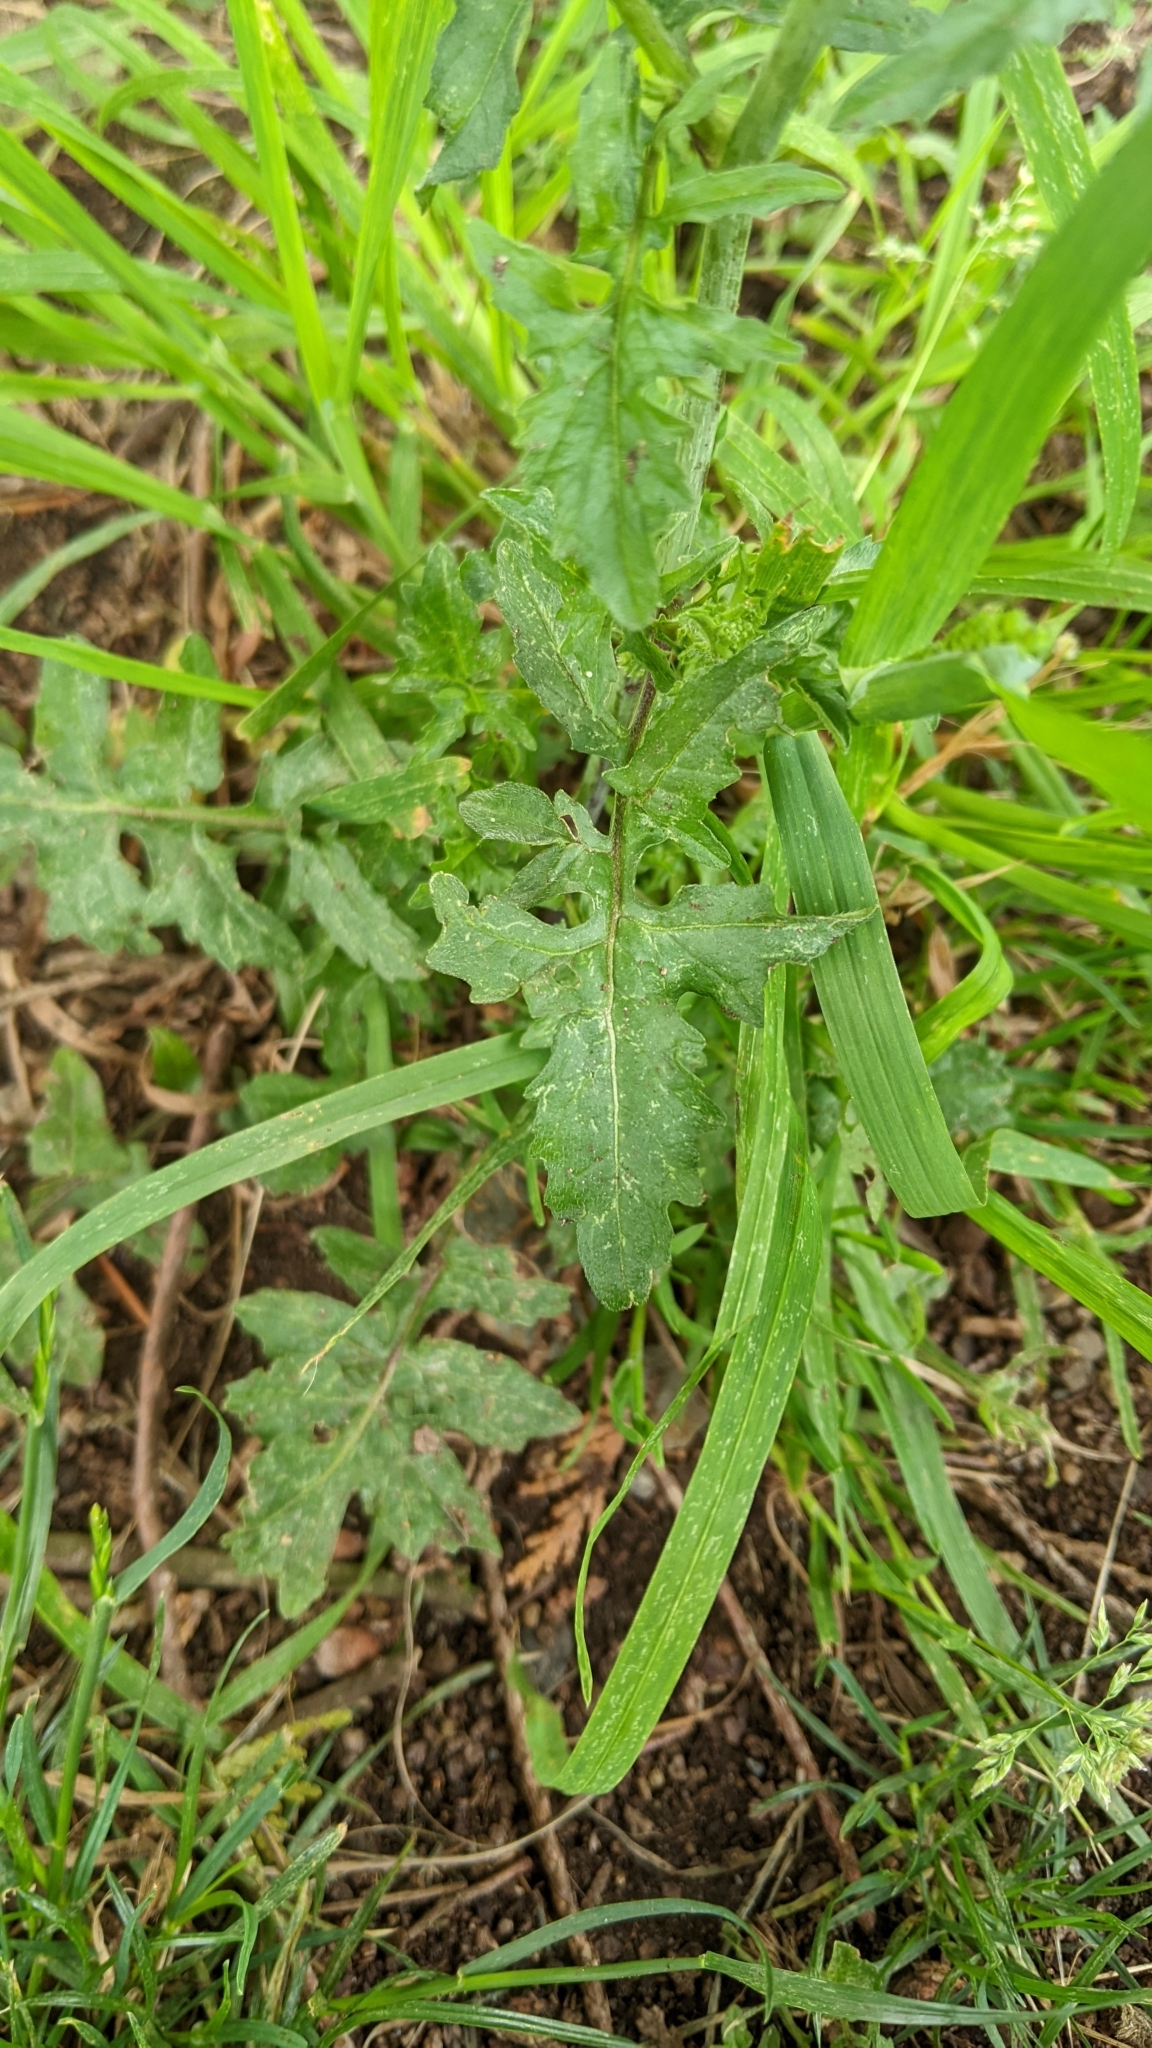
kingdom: Plantae
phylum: Tracheophyta
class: Magnoliopsida
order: Brassicales
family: Brassicaceae
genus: Sisymbrium
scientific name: Sisymbrium officinale
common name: Hedge mustard
